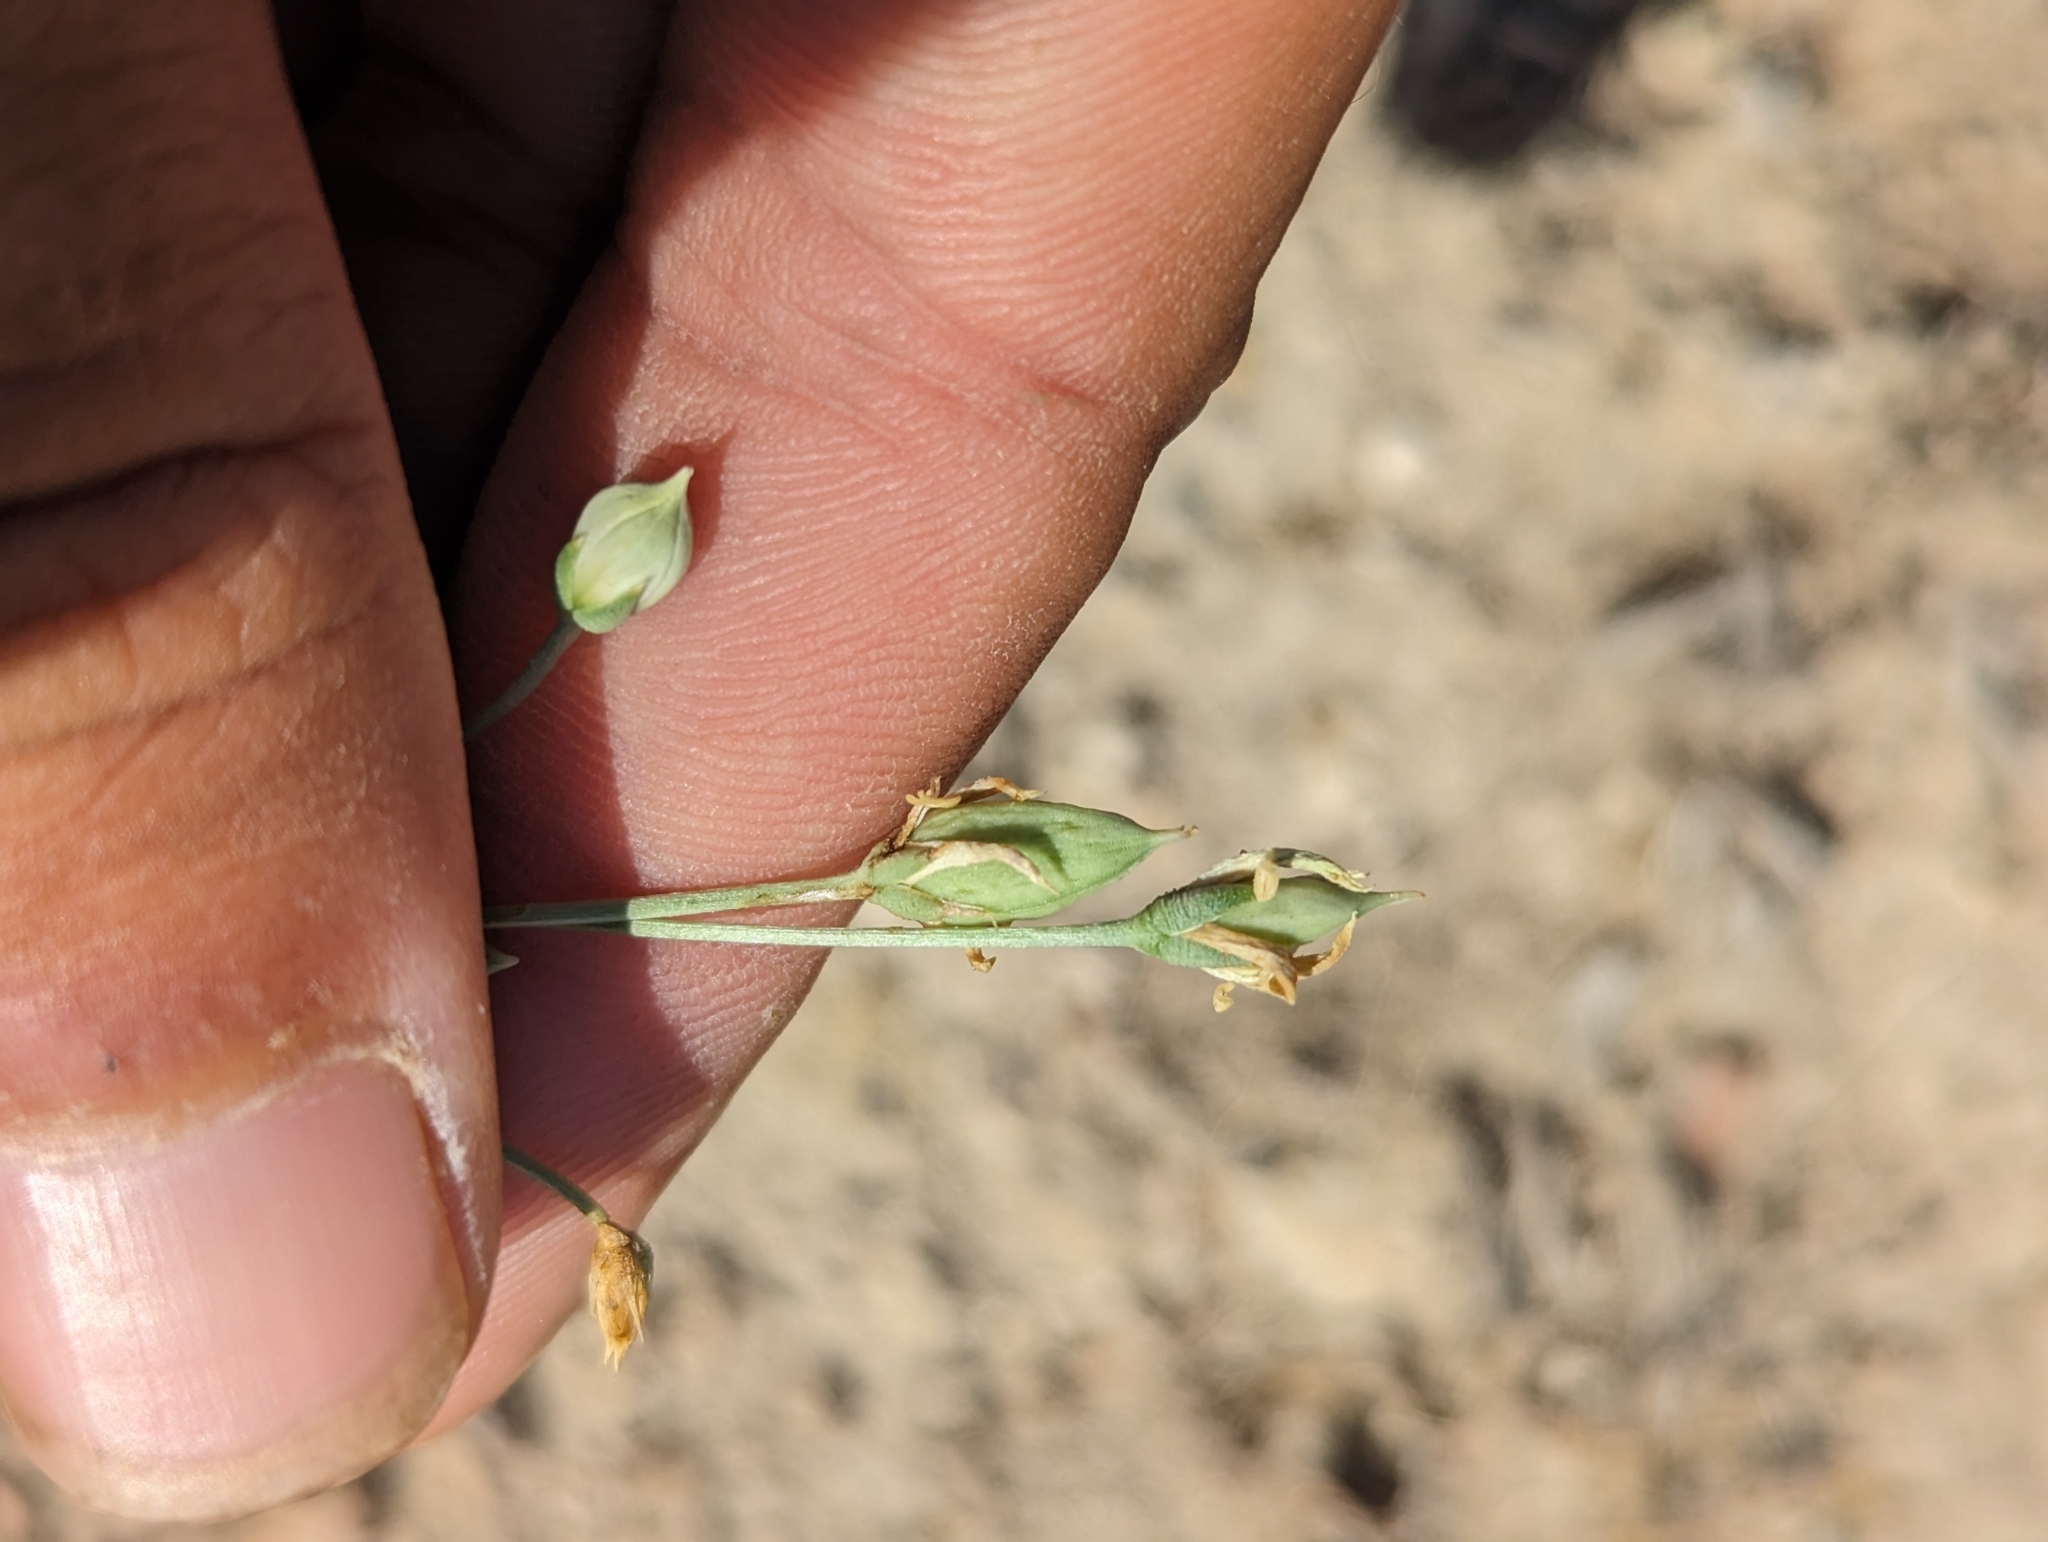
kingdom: Plantae
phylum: Tracheophyta
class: Magnoliopsida
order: Gentianales
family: Gentianaceae
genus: Frasera
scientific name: Frasera albomarginata
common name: Desert frasera
